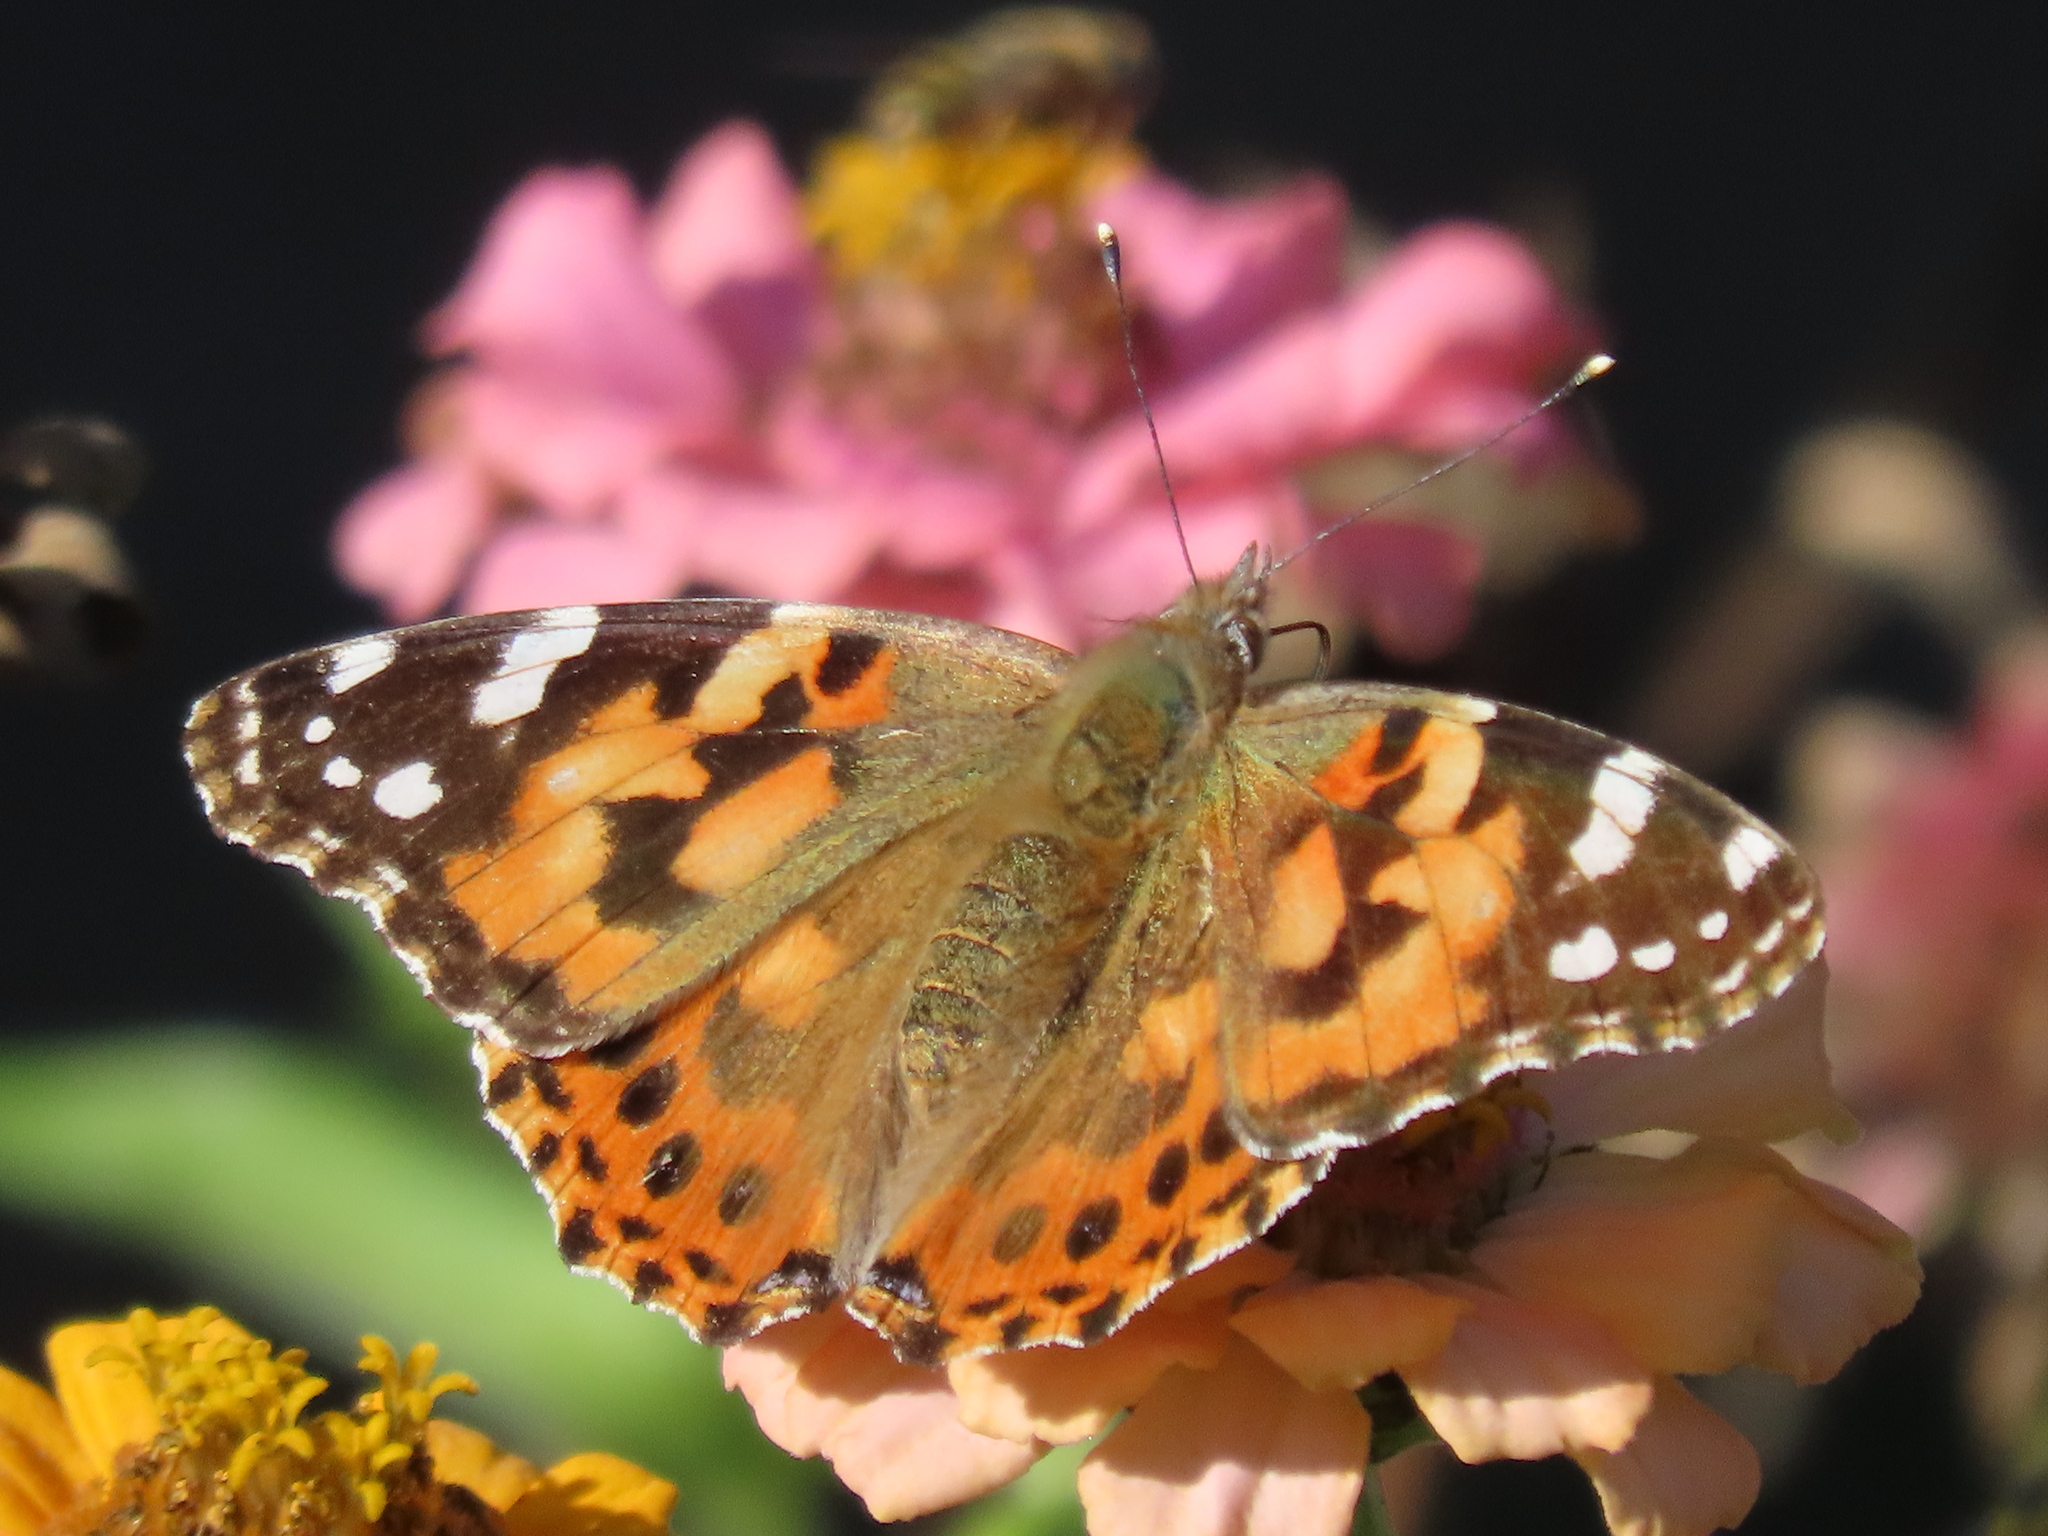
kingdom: Animalia
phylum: Arthropoda
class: Insecta
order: Lepidoptera
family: Nymphalidae
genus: Vanessa
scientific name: Vanessa cardui
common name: Painted lady
